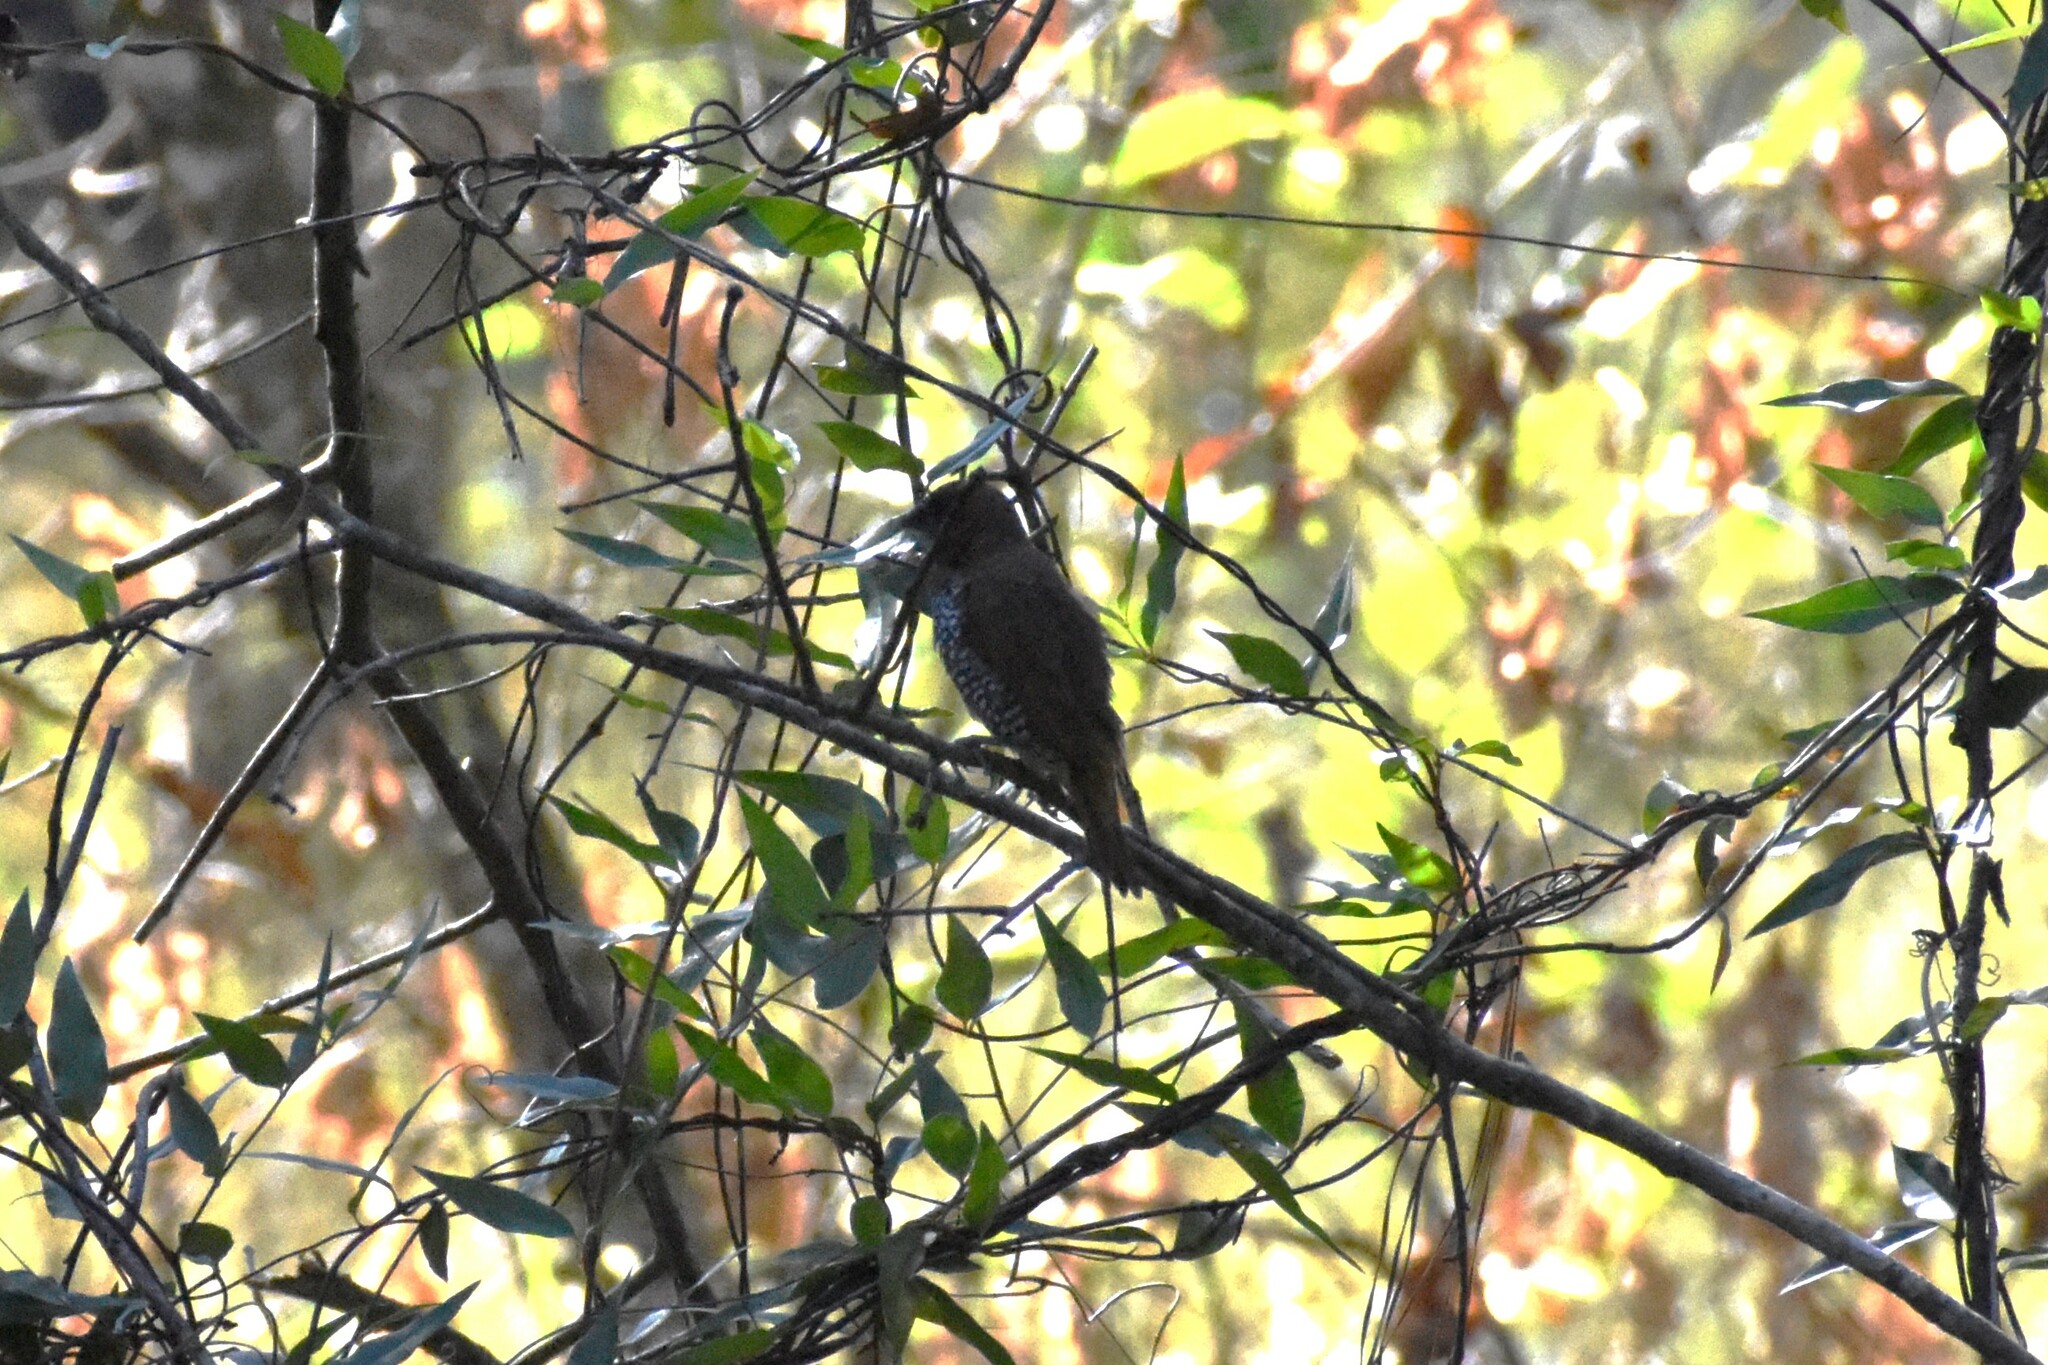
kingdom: Animalia
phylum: Chordata
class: Aves
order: Passeriformes
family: Estrildidae
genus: Lonchura
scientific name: Lonchura punctulata
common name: Scaly-breasted munia
